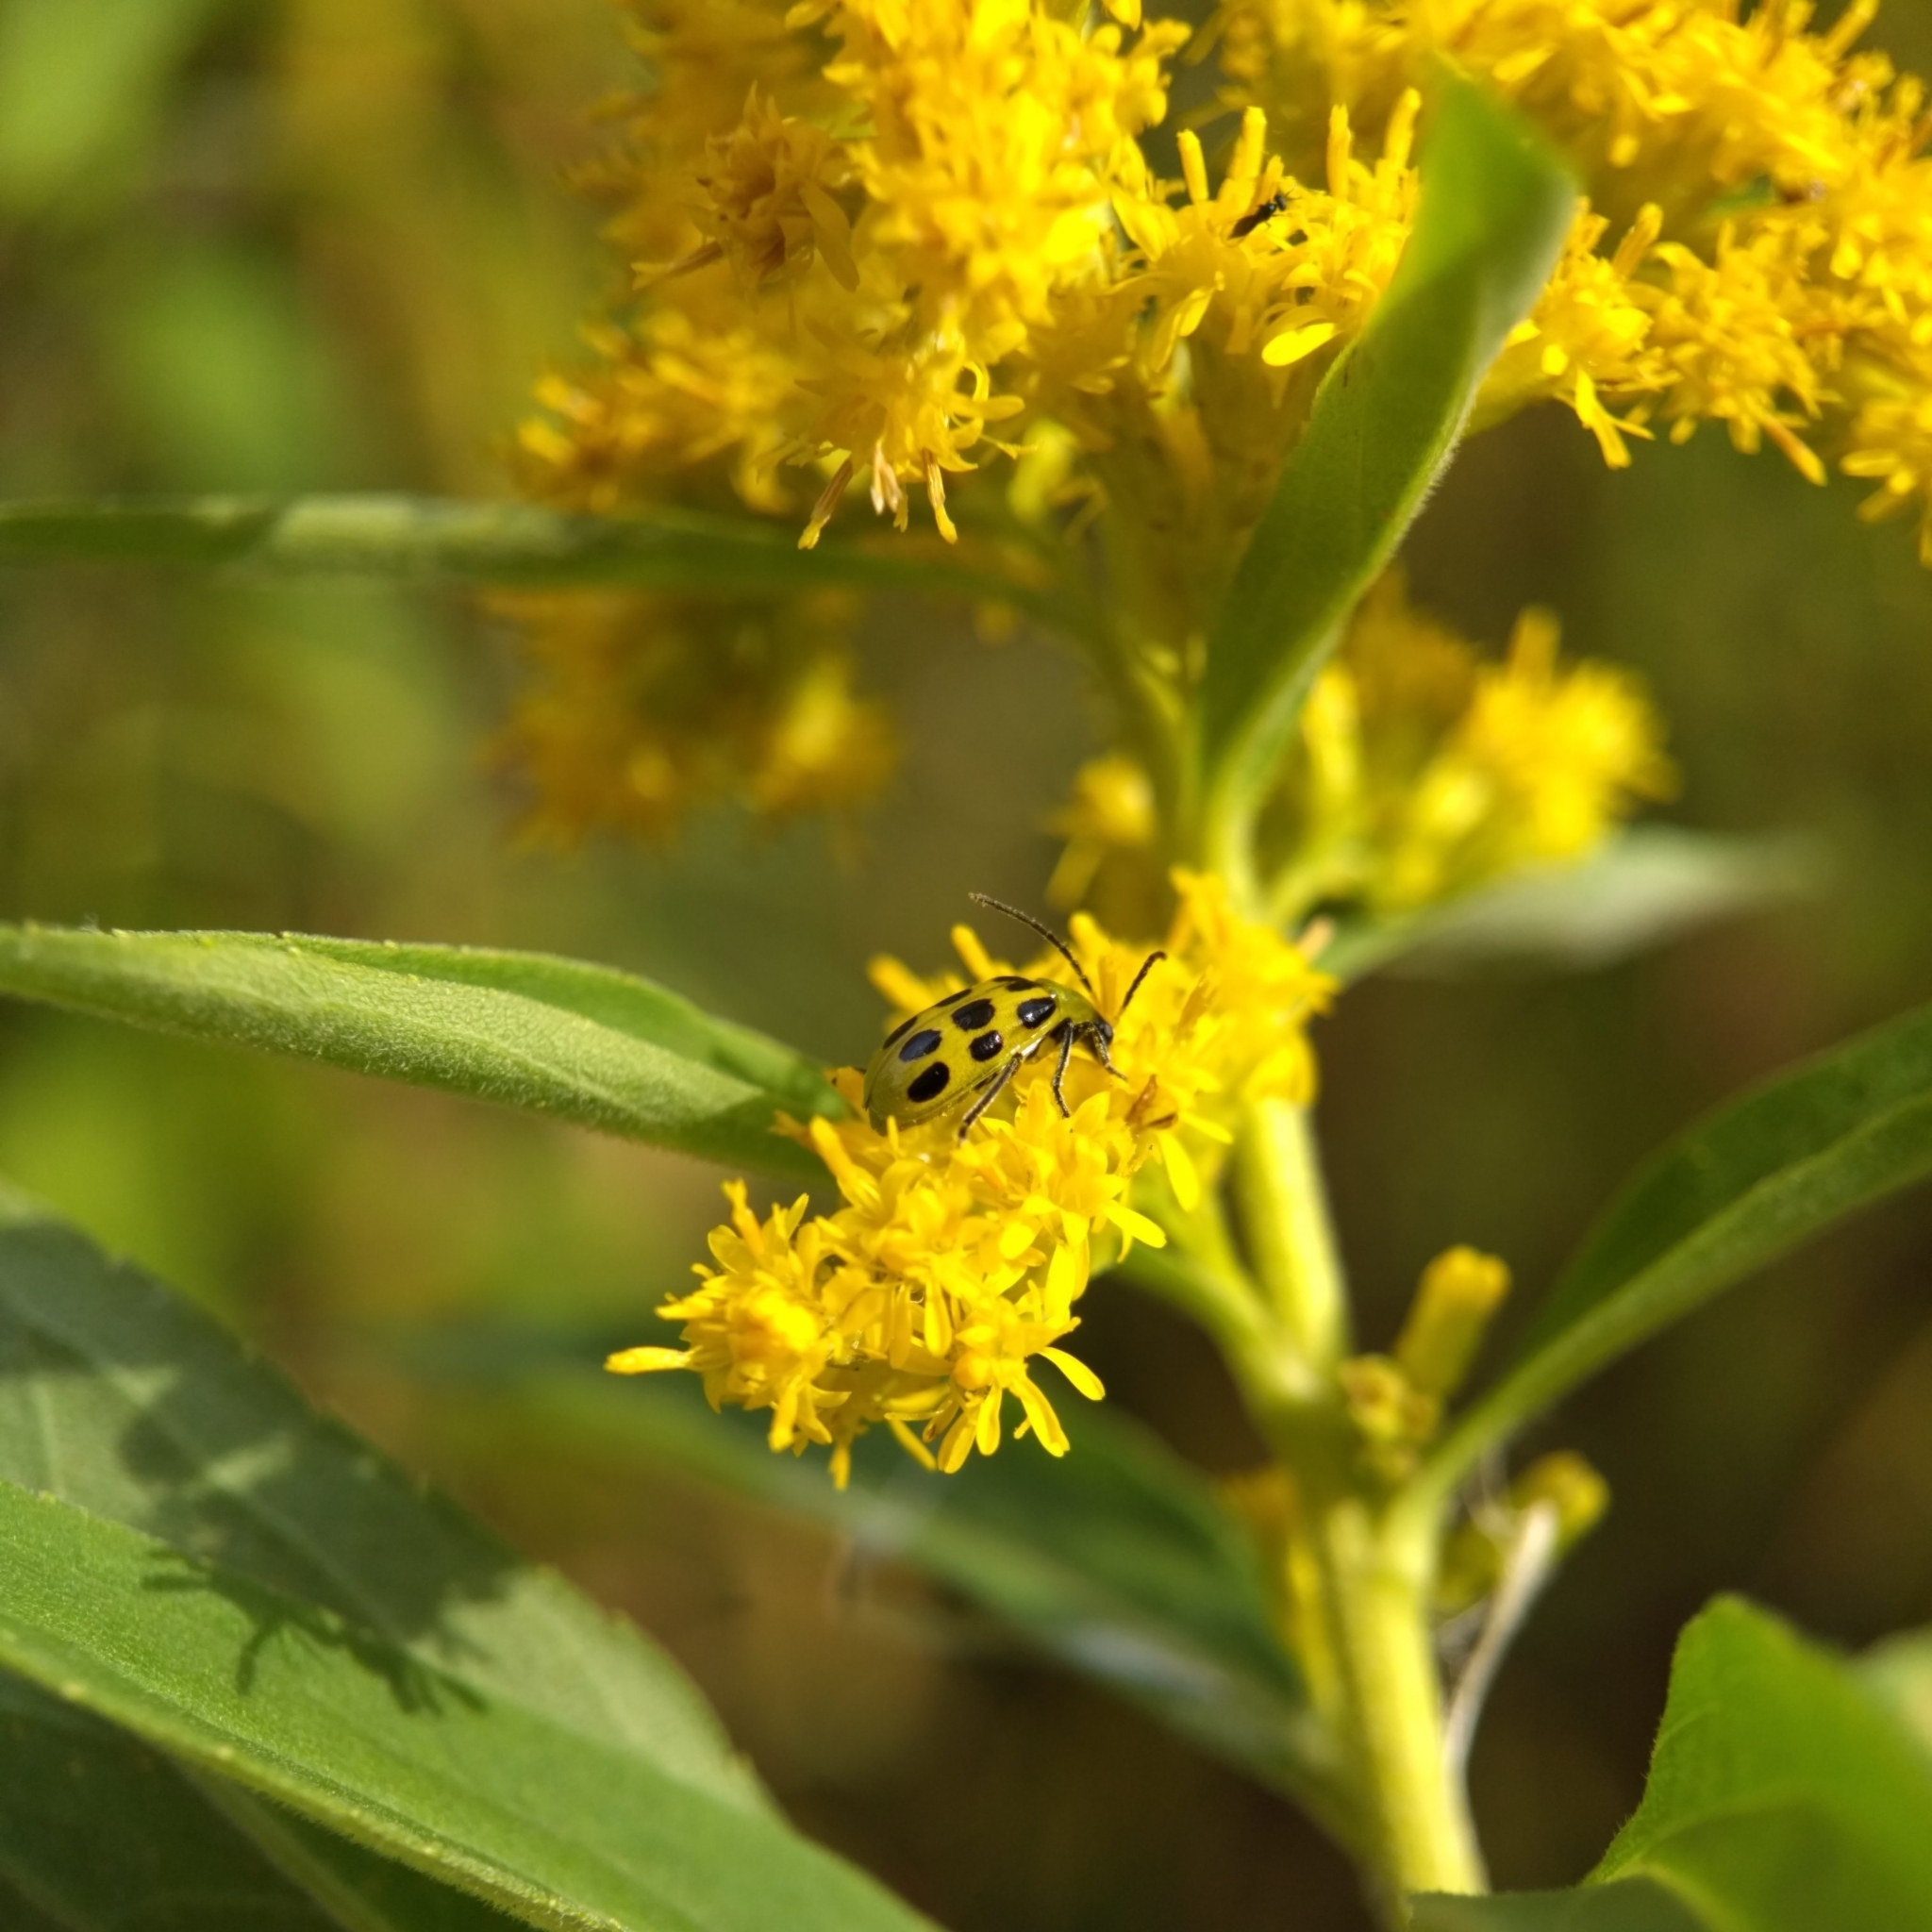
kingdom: Animalia
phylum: Arthropoda
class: Insecta
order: Coleoptera
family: Chrysomelidae
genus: Diabrotica
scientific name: Diabrotica undecimpunctata
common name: Spotted cucumber beetle
